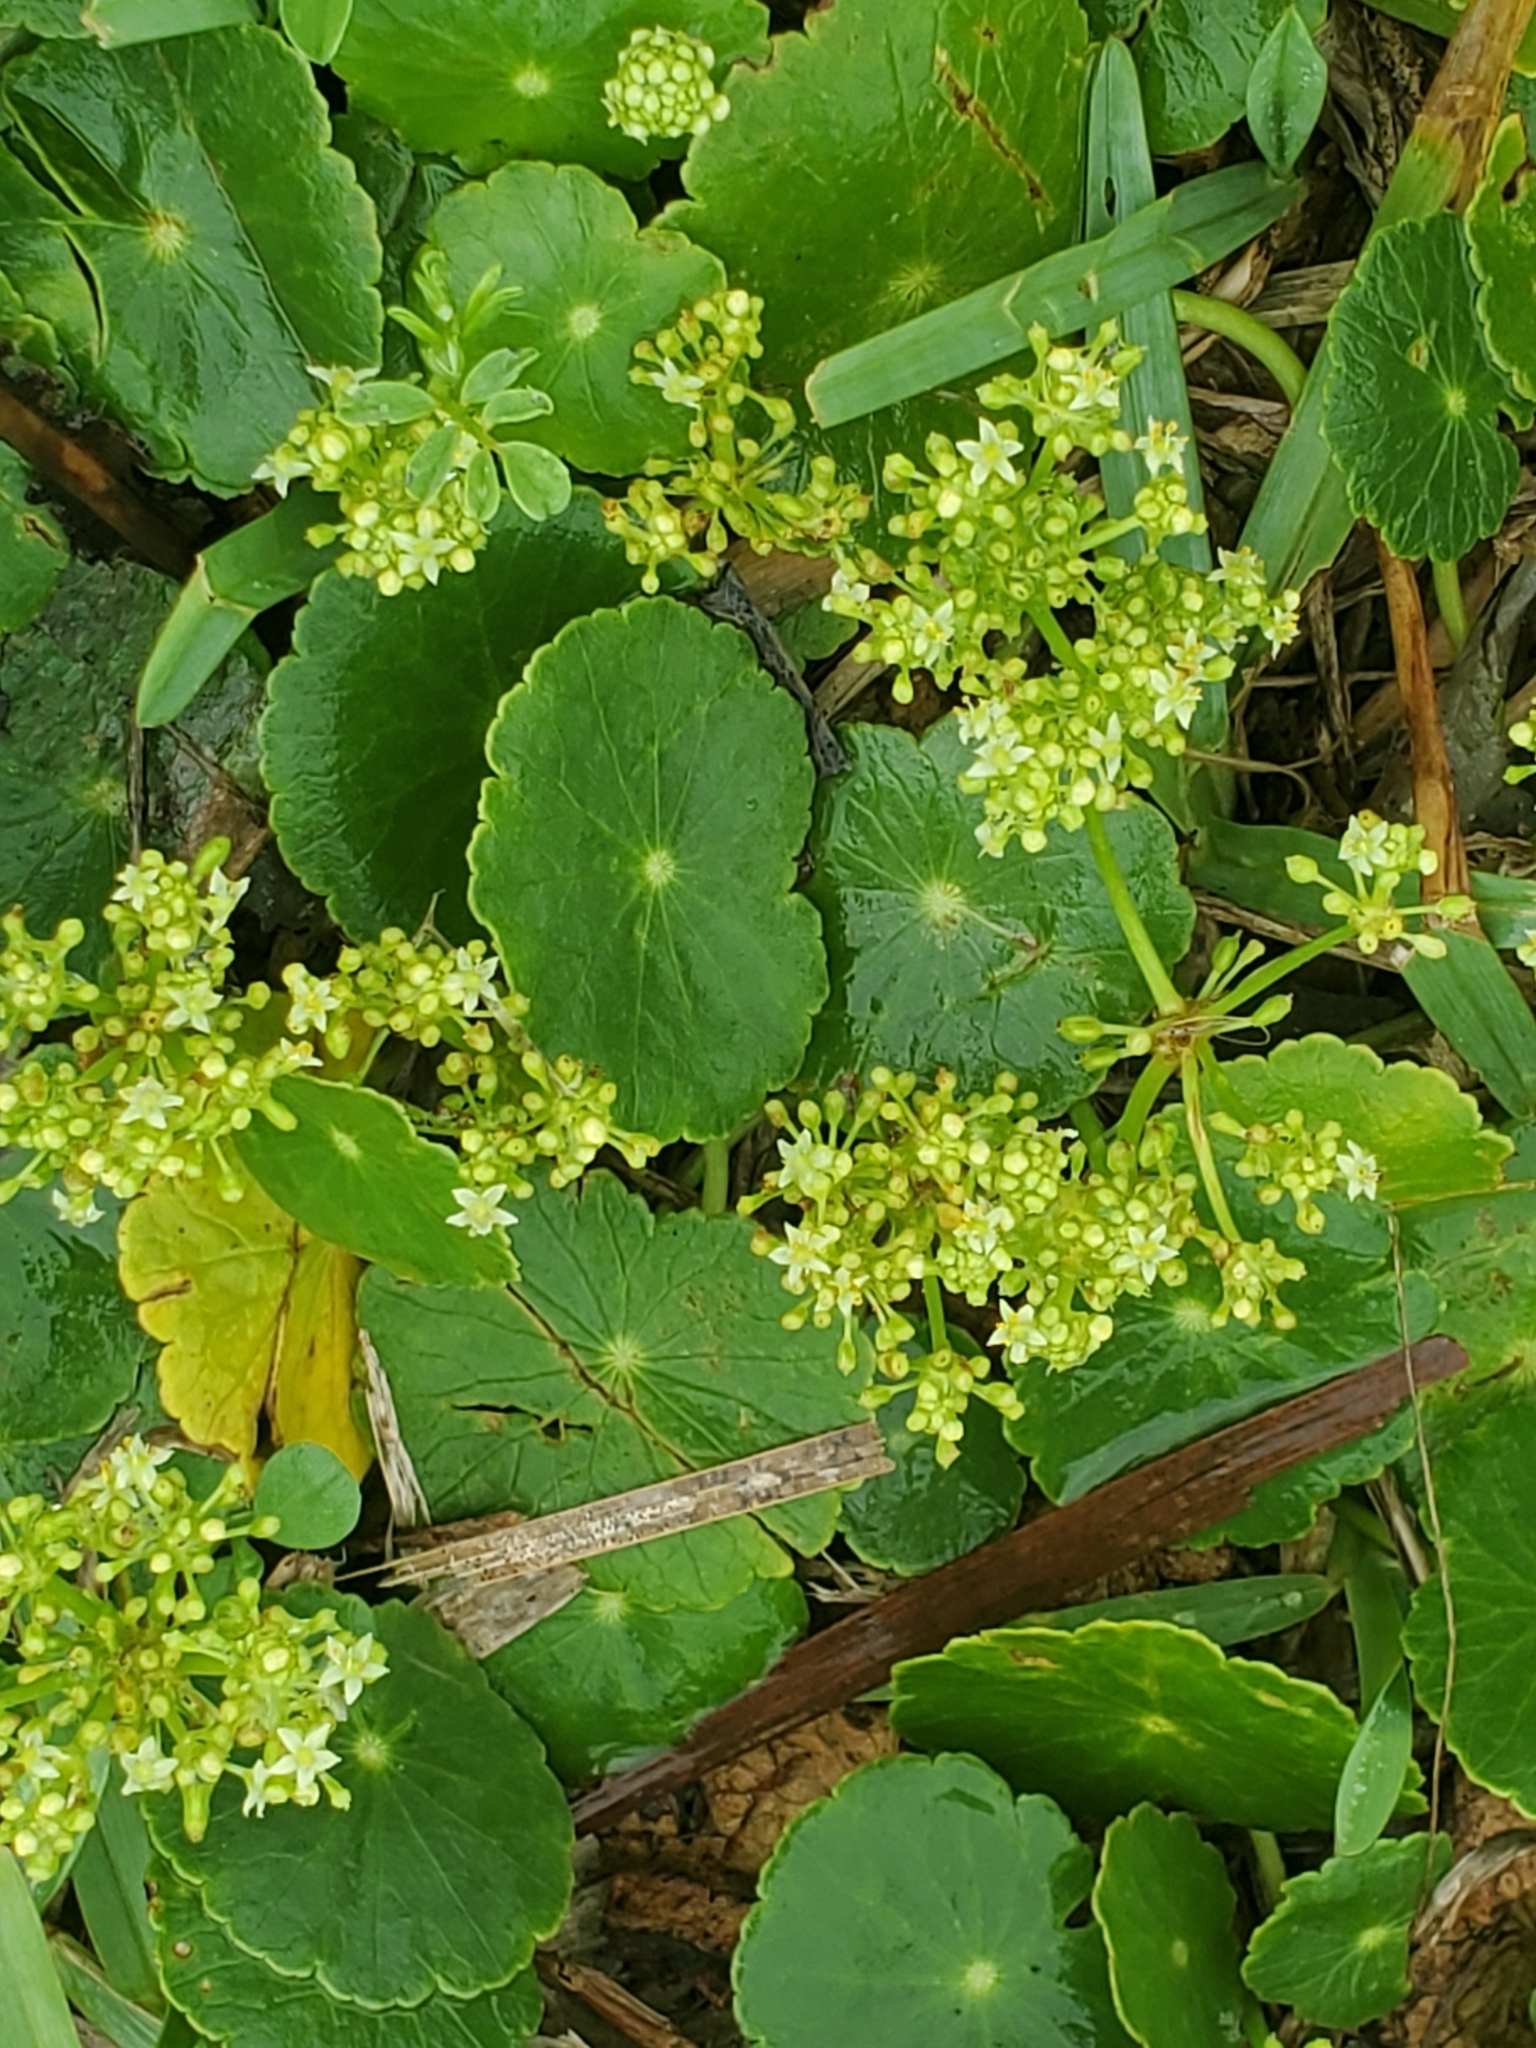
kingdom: Plantae
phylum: Tracheophyta
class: Magnoliopsida
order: Apiales
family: Araliaceae
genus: Hydrocotyle
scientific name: Hydrocotyle bonariensis
